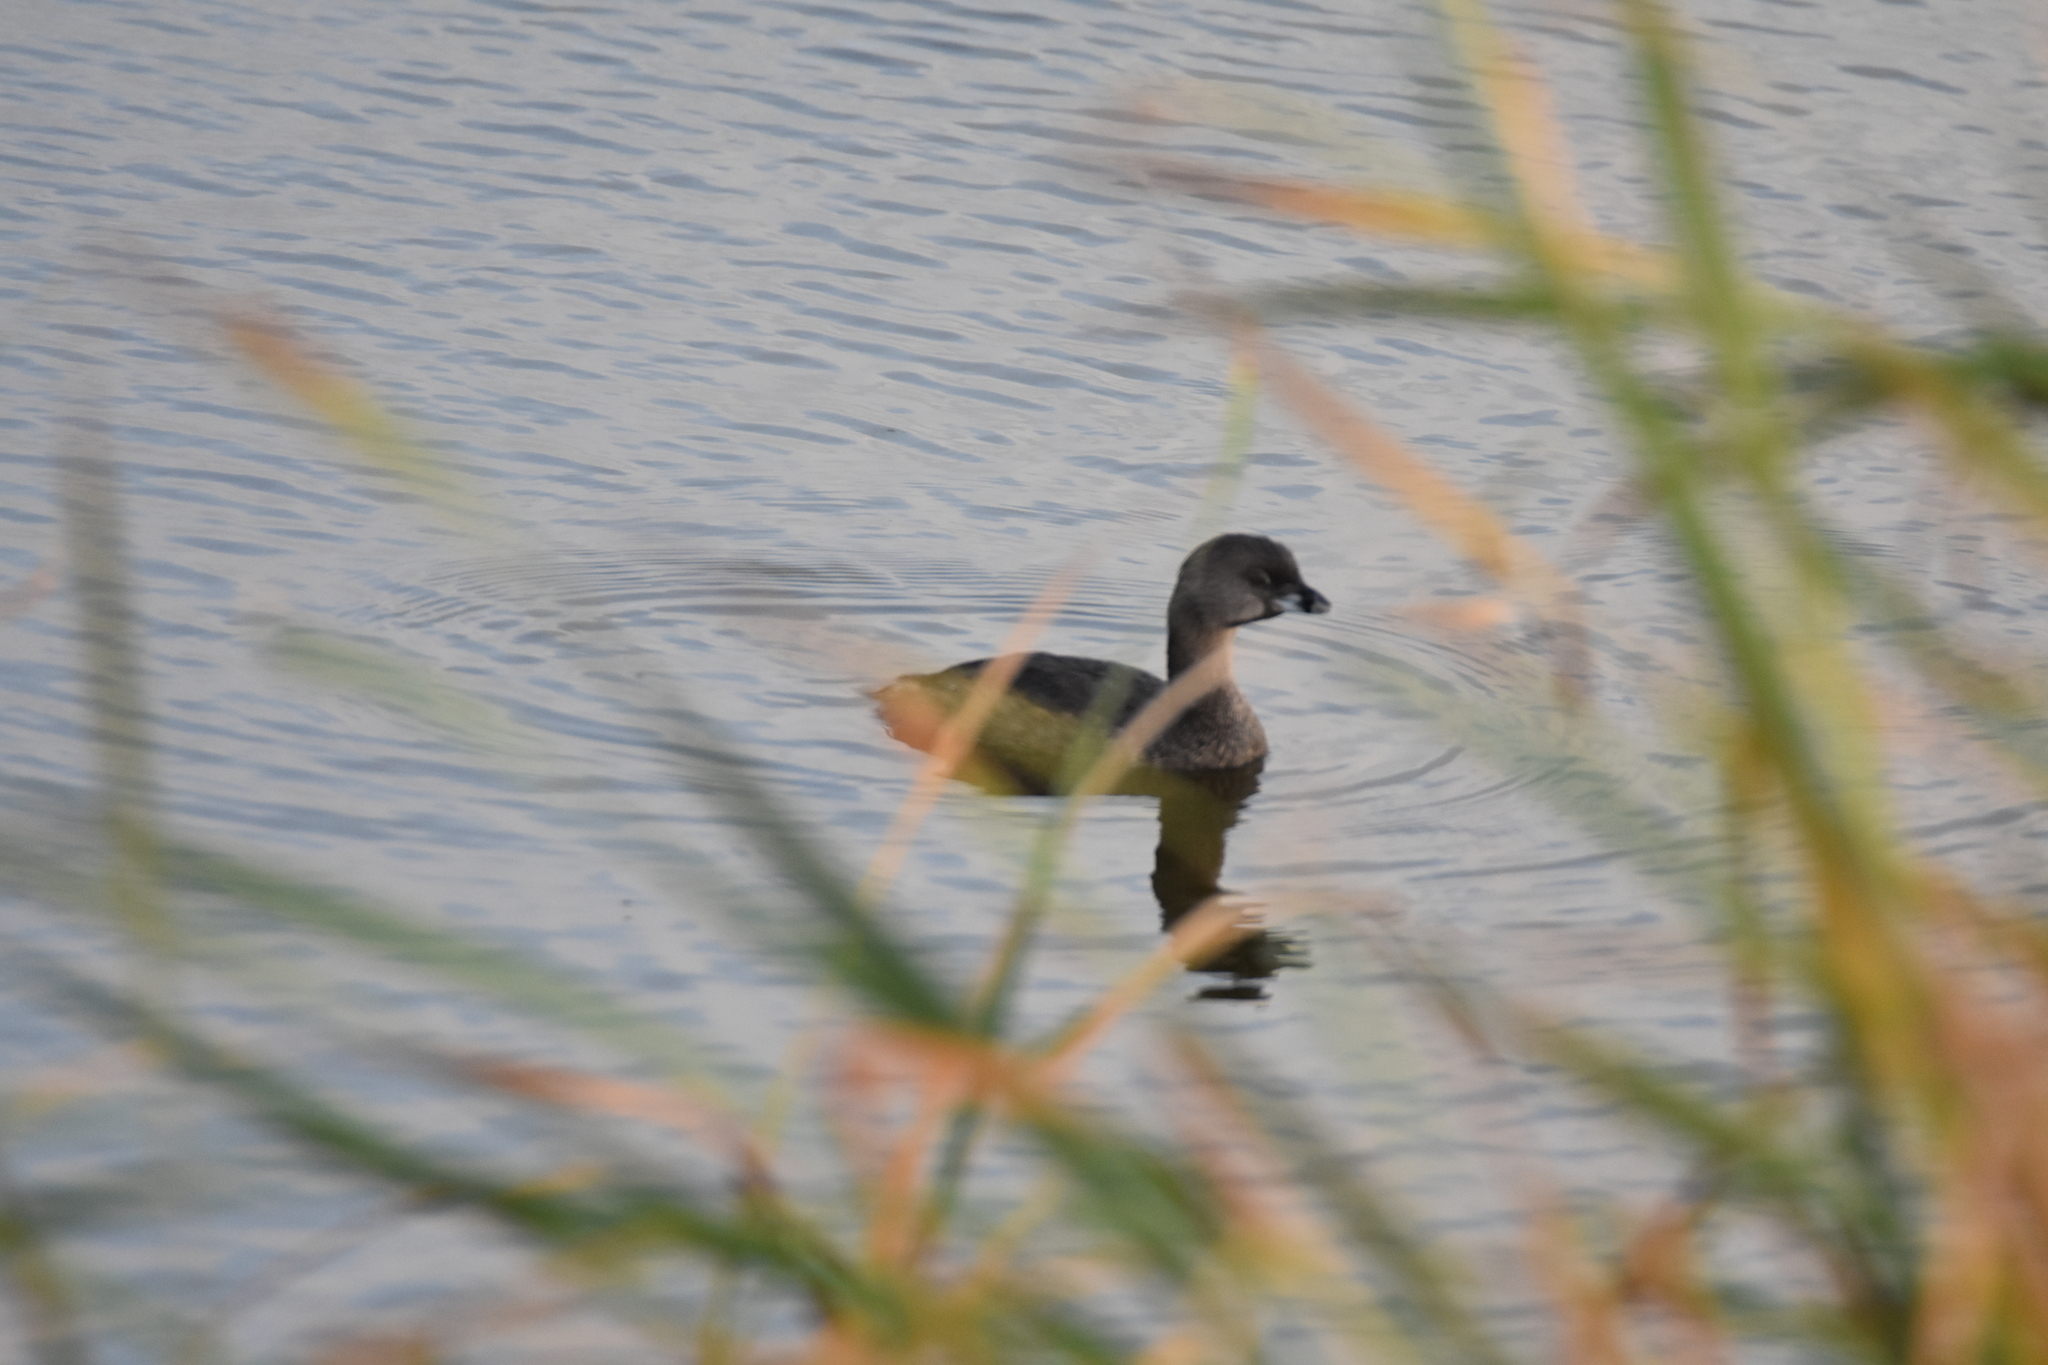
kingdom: Animalia
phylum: Chordata
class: Aves
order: Podicipediformes
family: Podicipedidae
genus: Podilymbus
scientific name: Podilymbus podiceps
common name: Pied-billed grebe
